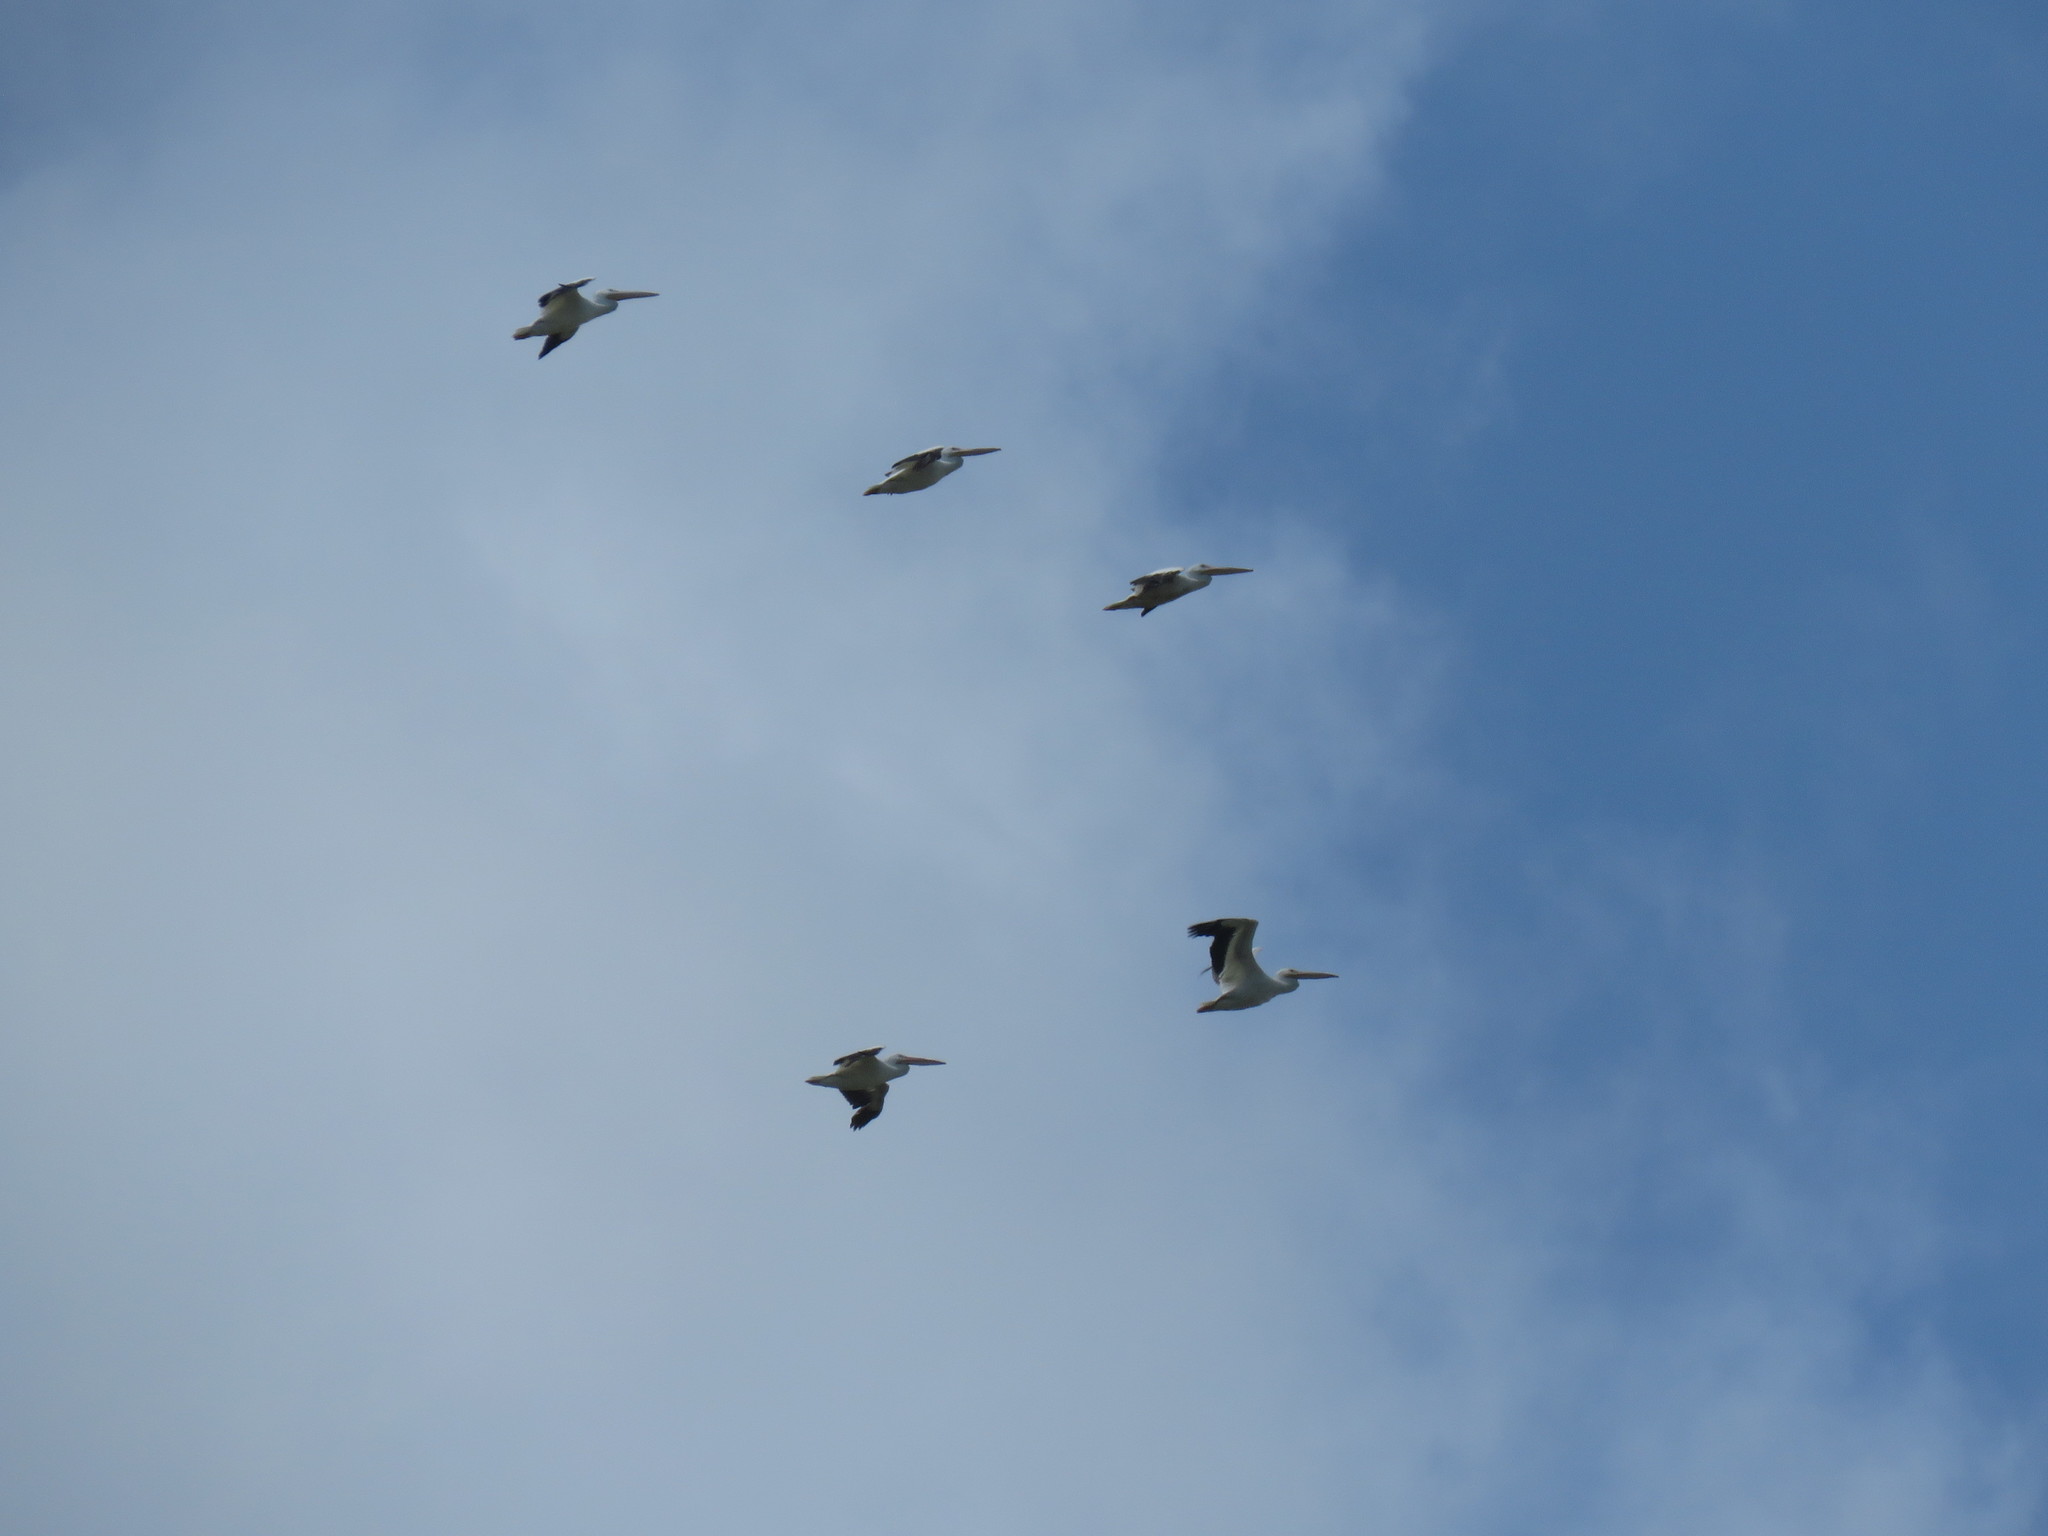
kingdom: Animalia
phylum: Chordata
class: Aves
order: Pelecaniformes
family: Pelecanidae
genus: Pelecanus
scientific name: Pelecanus erythrorhynchos
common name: American white pelican
